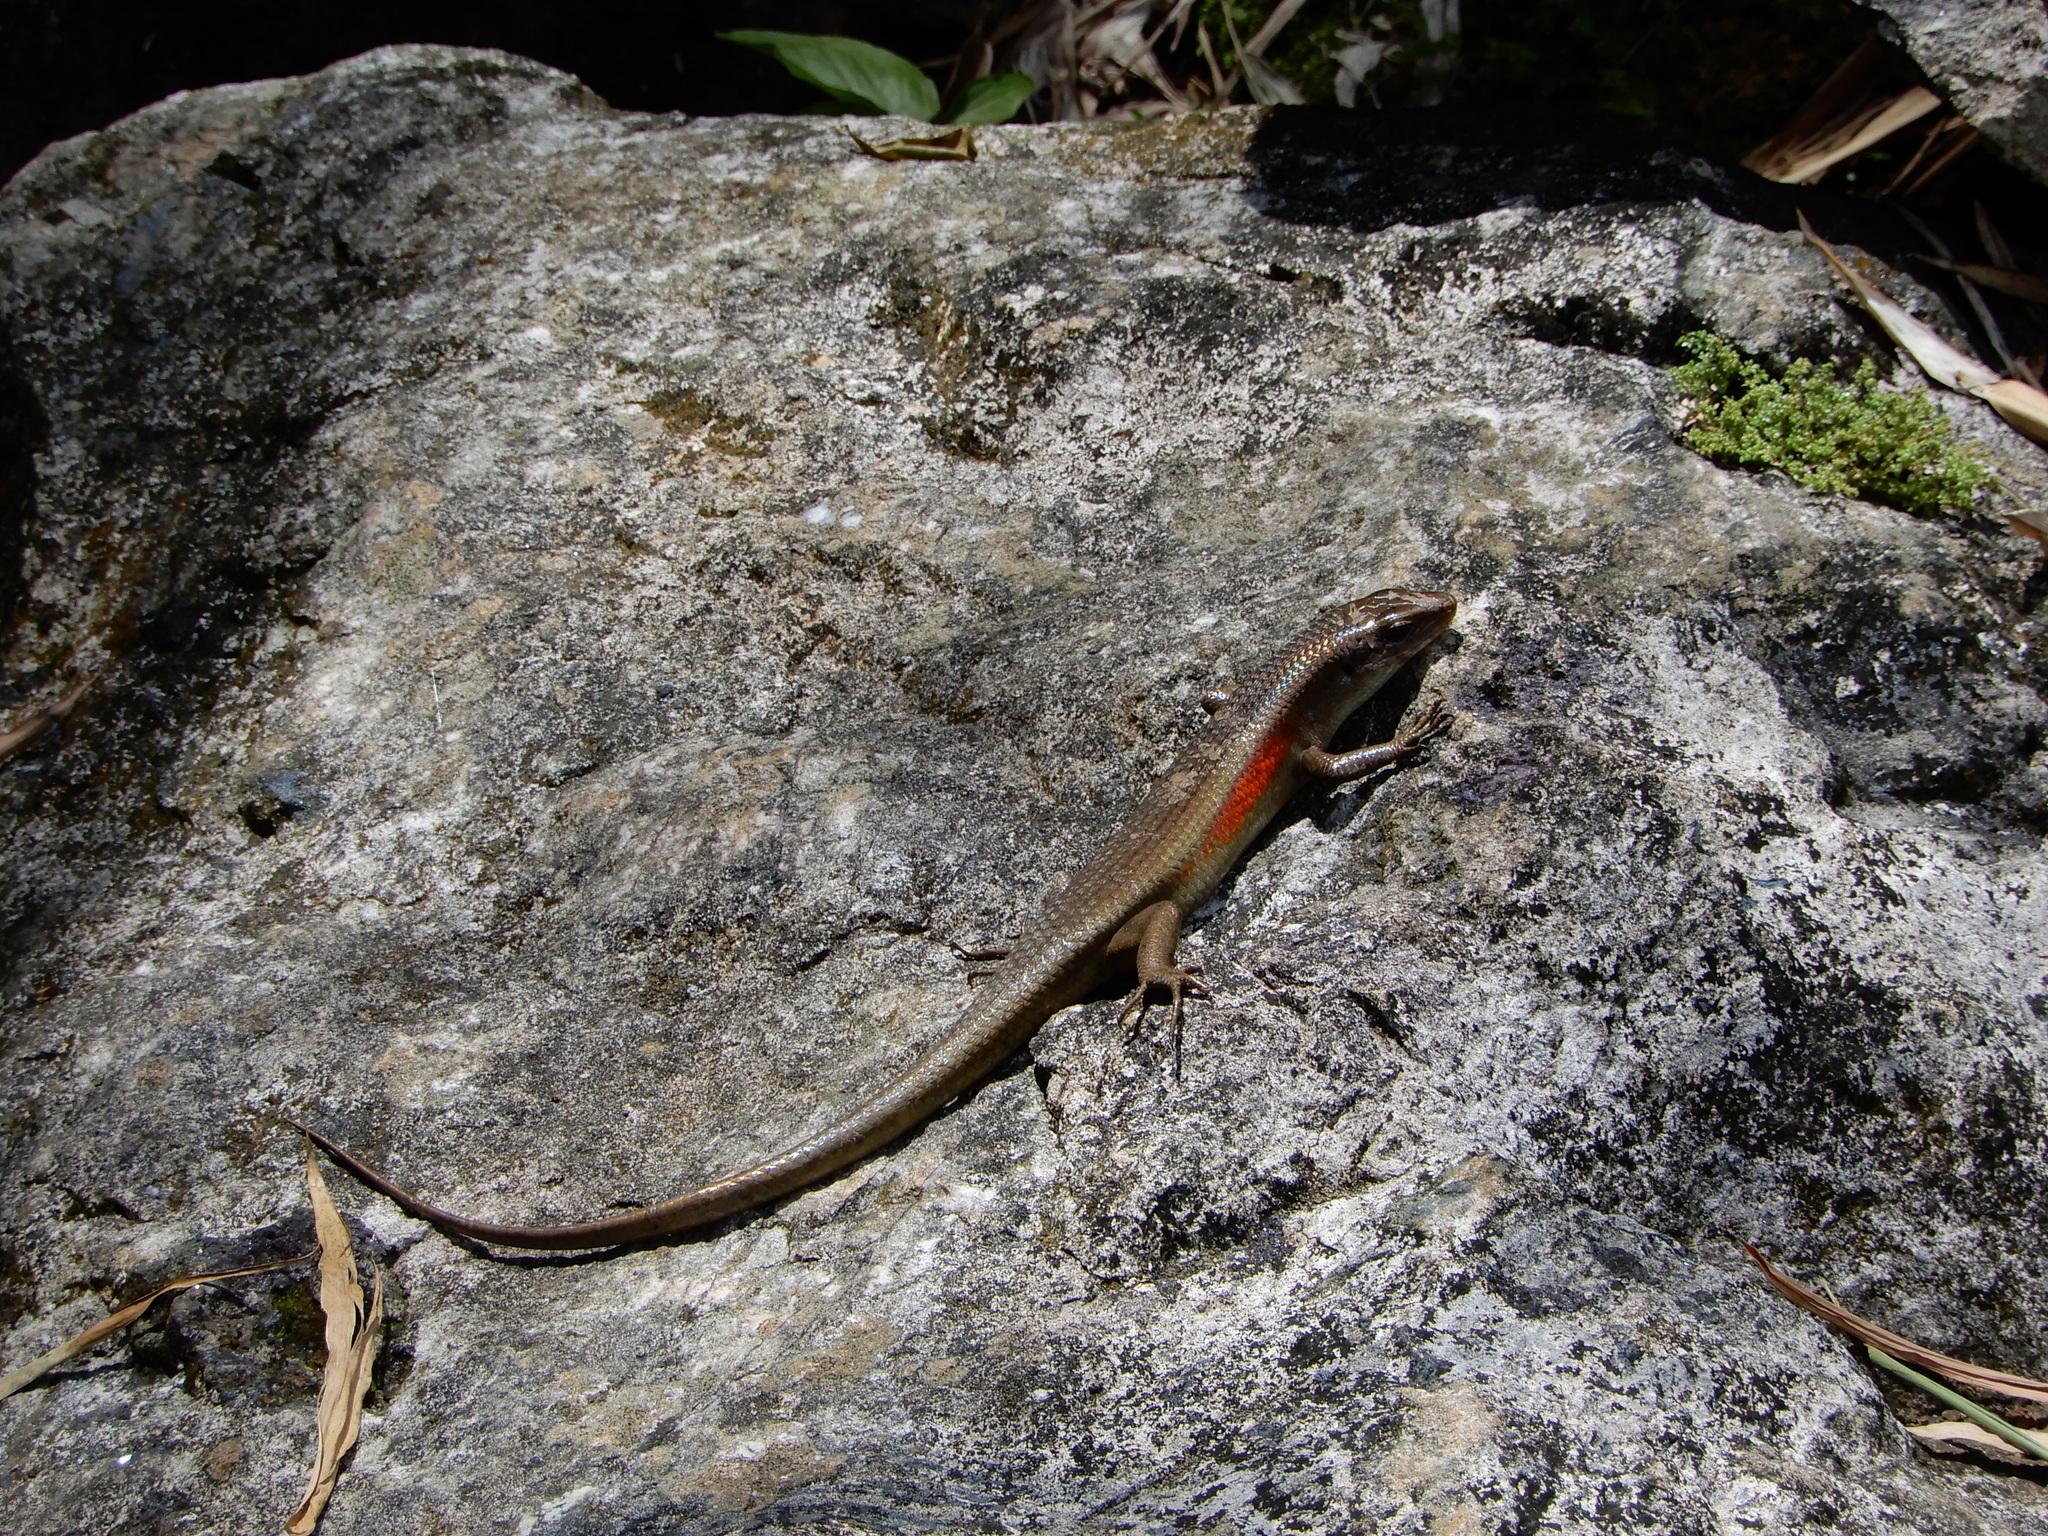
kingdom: Animalia
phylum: Chordata
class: Squamata
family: Scincidae
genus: Eutropis
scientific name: Eutropis multifasciata
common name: Common mabuya
